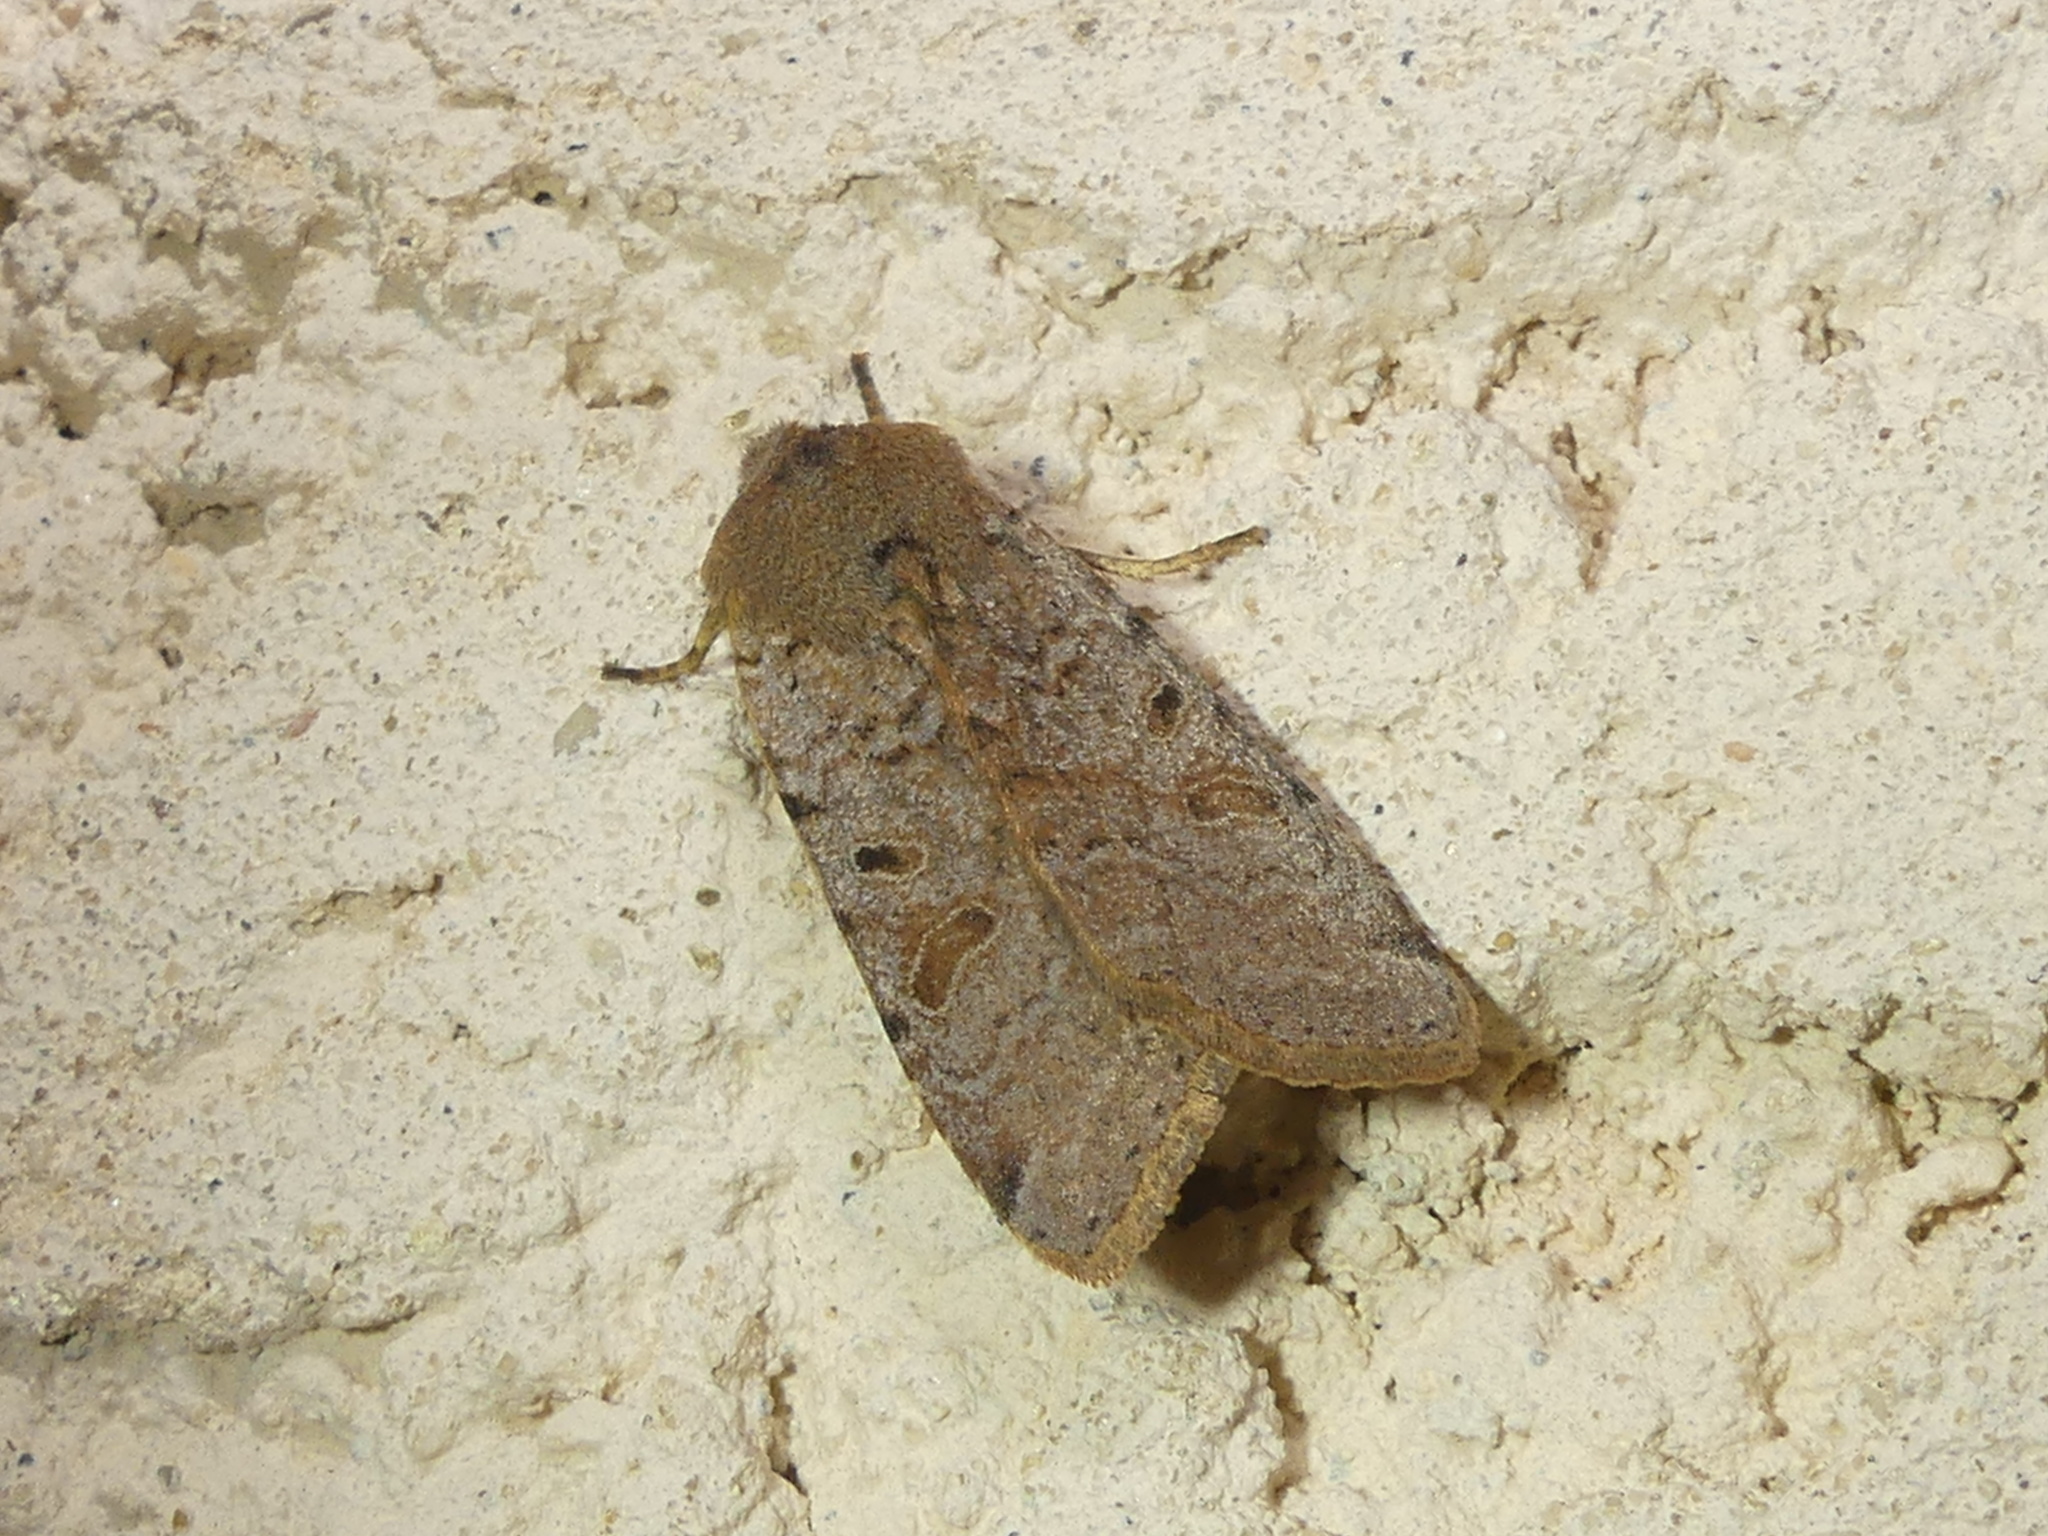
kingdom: Animalia
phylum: Arthropoda
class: Insecta
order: Lepidoptera
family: Noctuidae
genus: Agrochola
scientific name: Agrochola lychnidis
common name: Beaded chestnut
